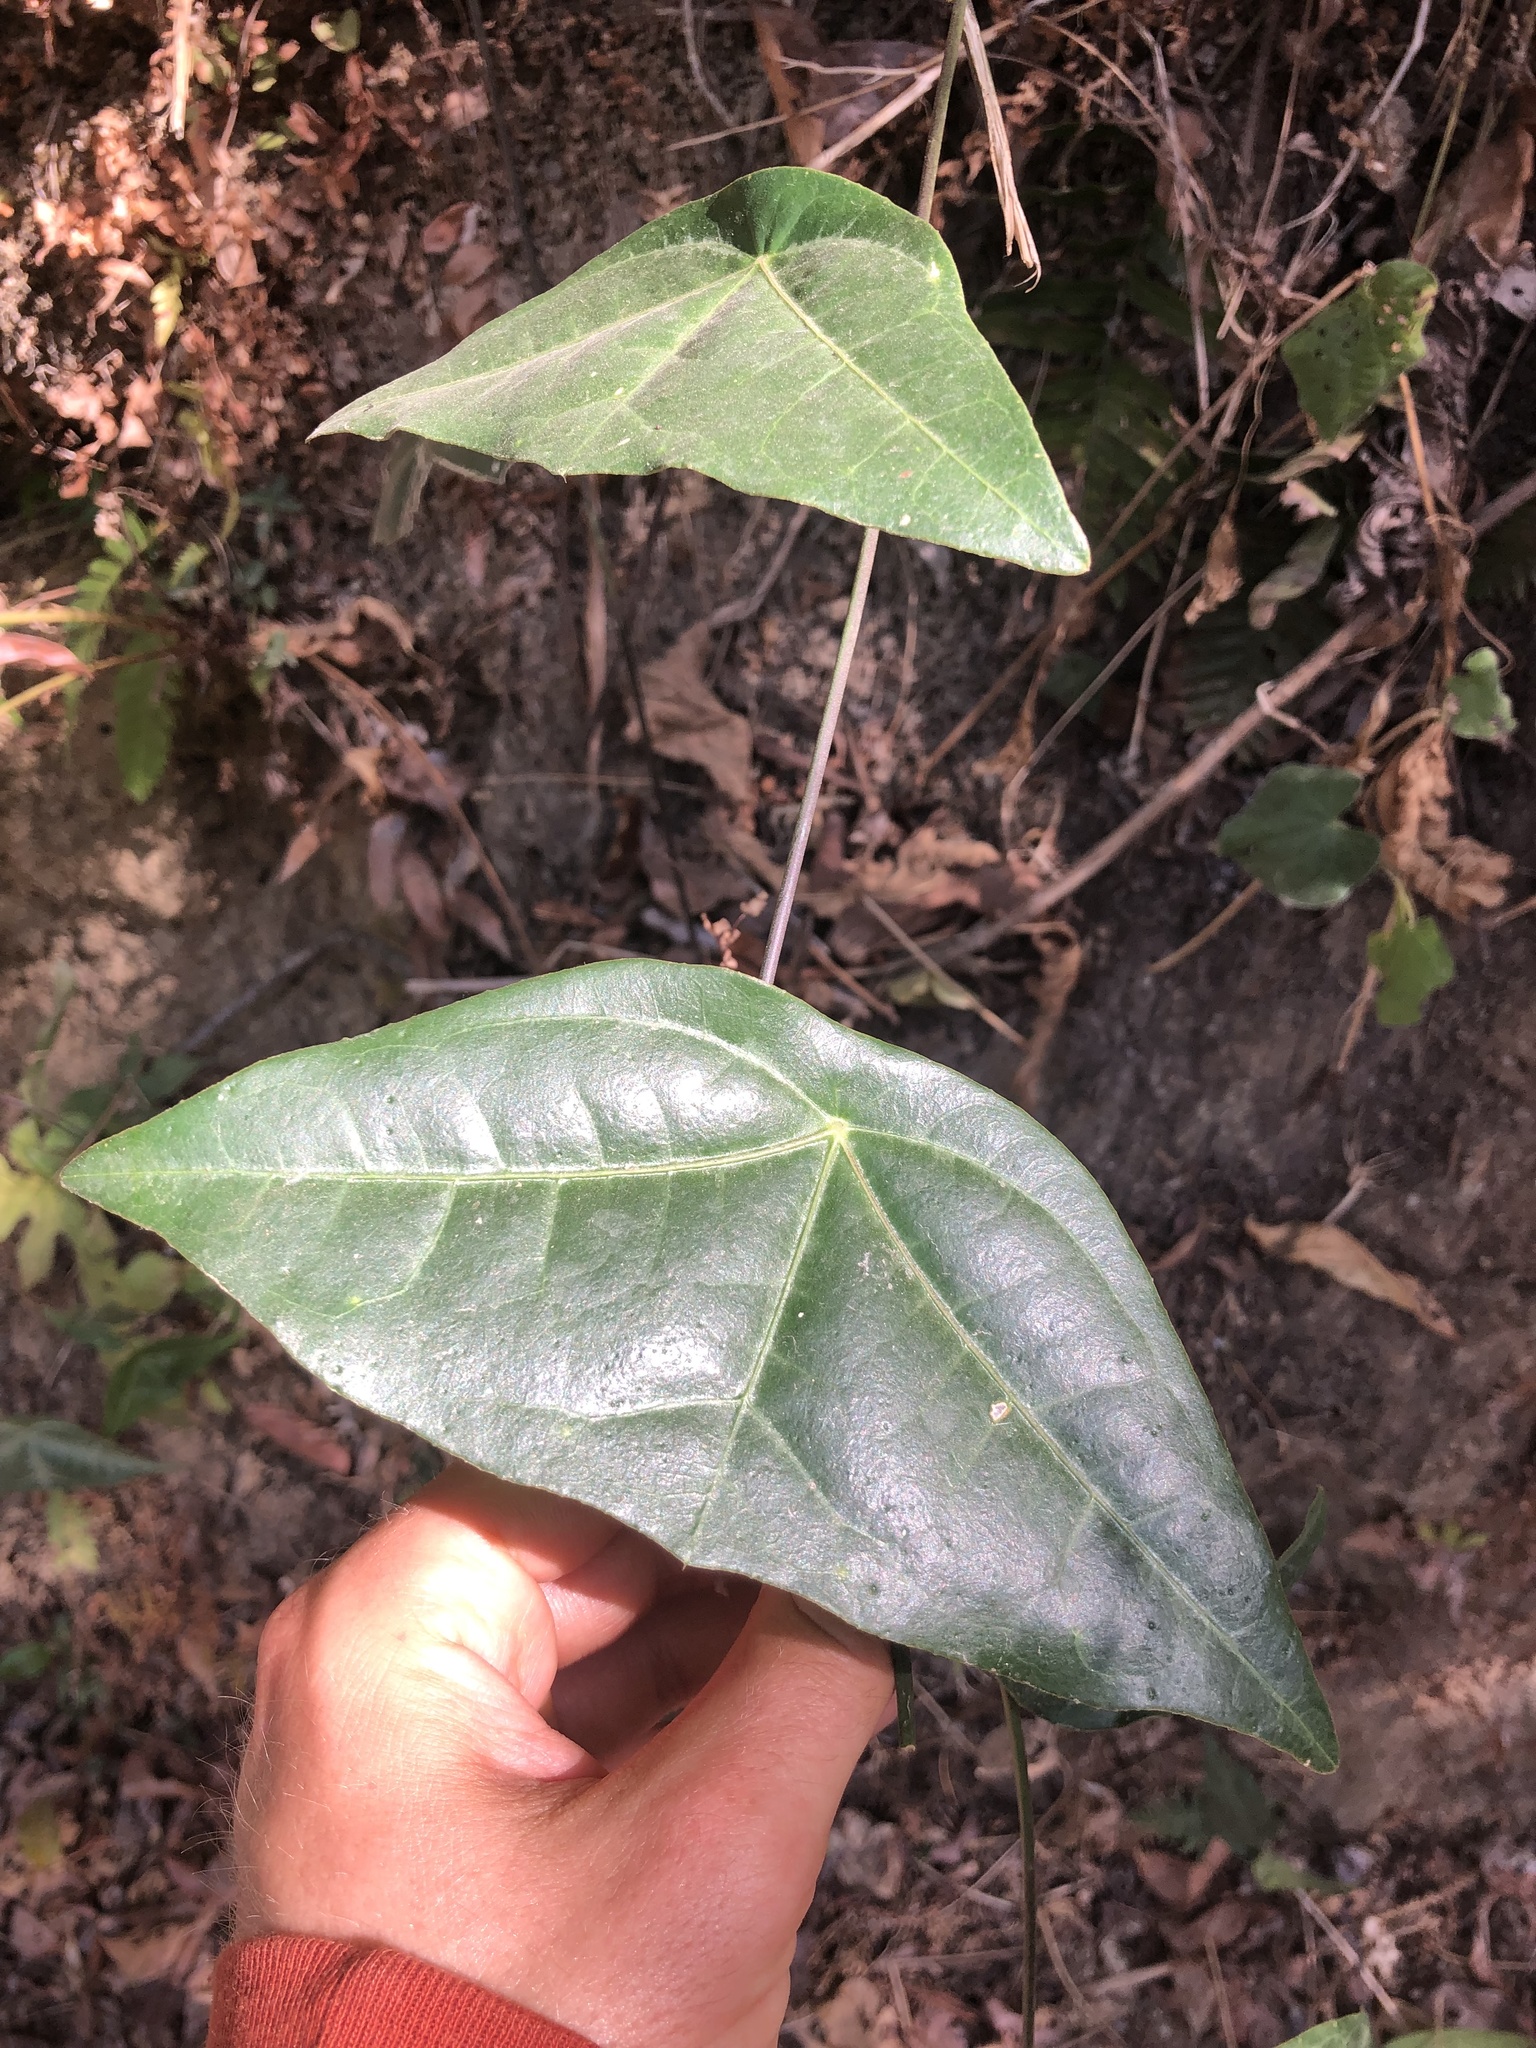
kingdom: Plantae
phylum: Tracheophyta
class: Magnoliopsida
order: Malpighiales
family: Passifloraceae
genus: Passiflora
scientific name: Passiflora coriacea
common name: Bat-leaf passionflower
